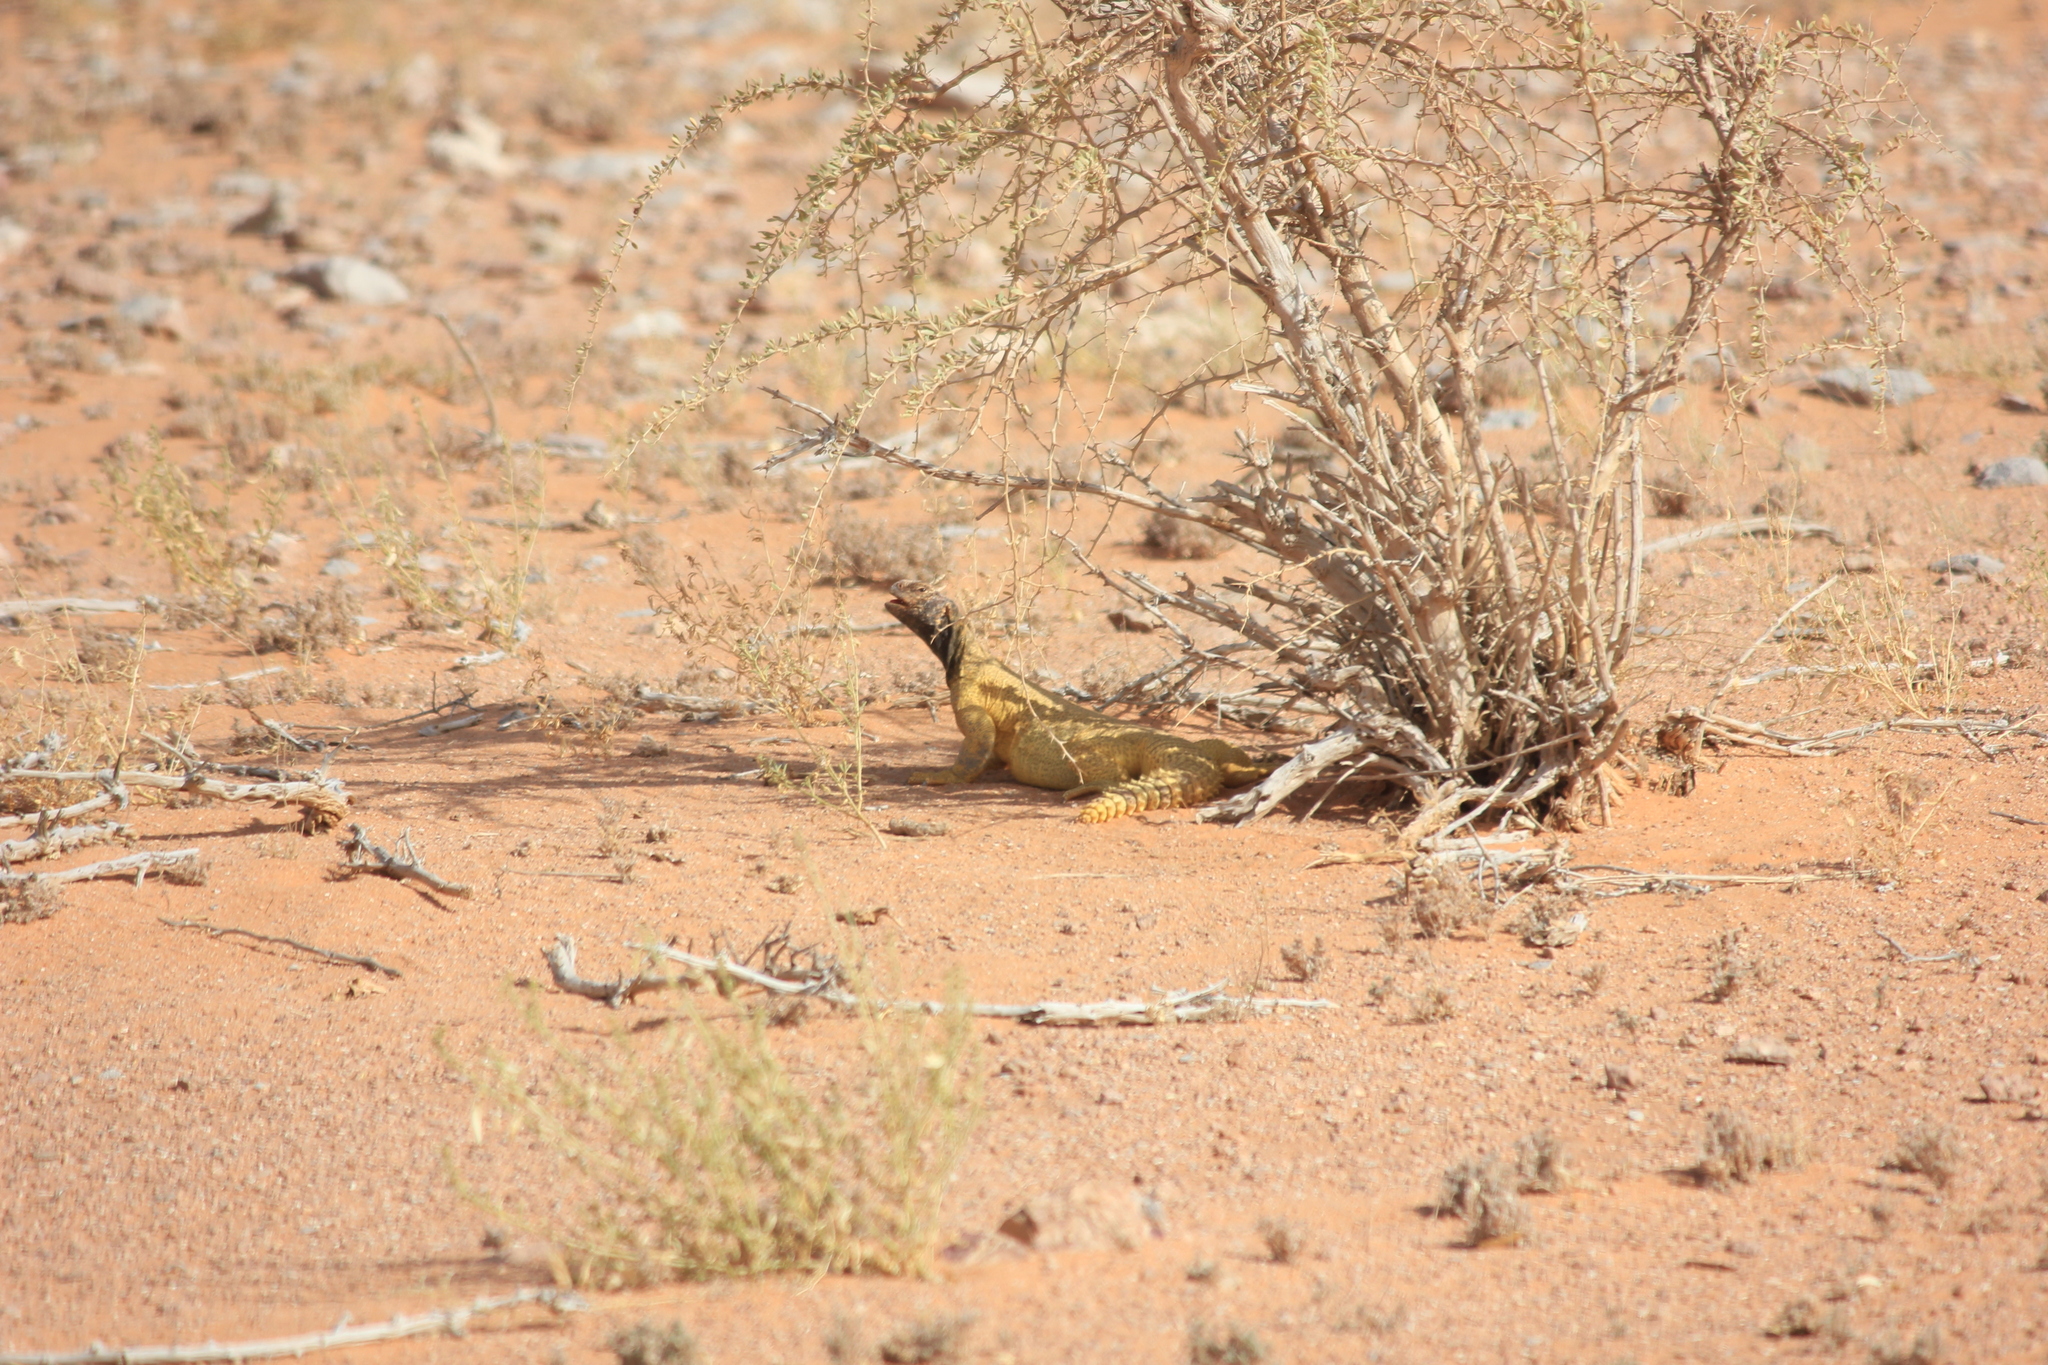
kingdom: Animalia
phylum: Chordata
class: Squamata
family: Agamidae
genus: Uromastyx
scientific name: Uromastyx aegyptia
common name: Egyptian mastigure
